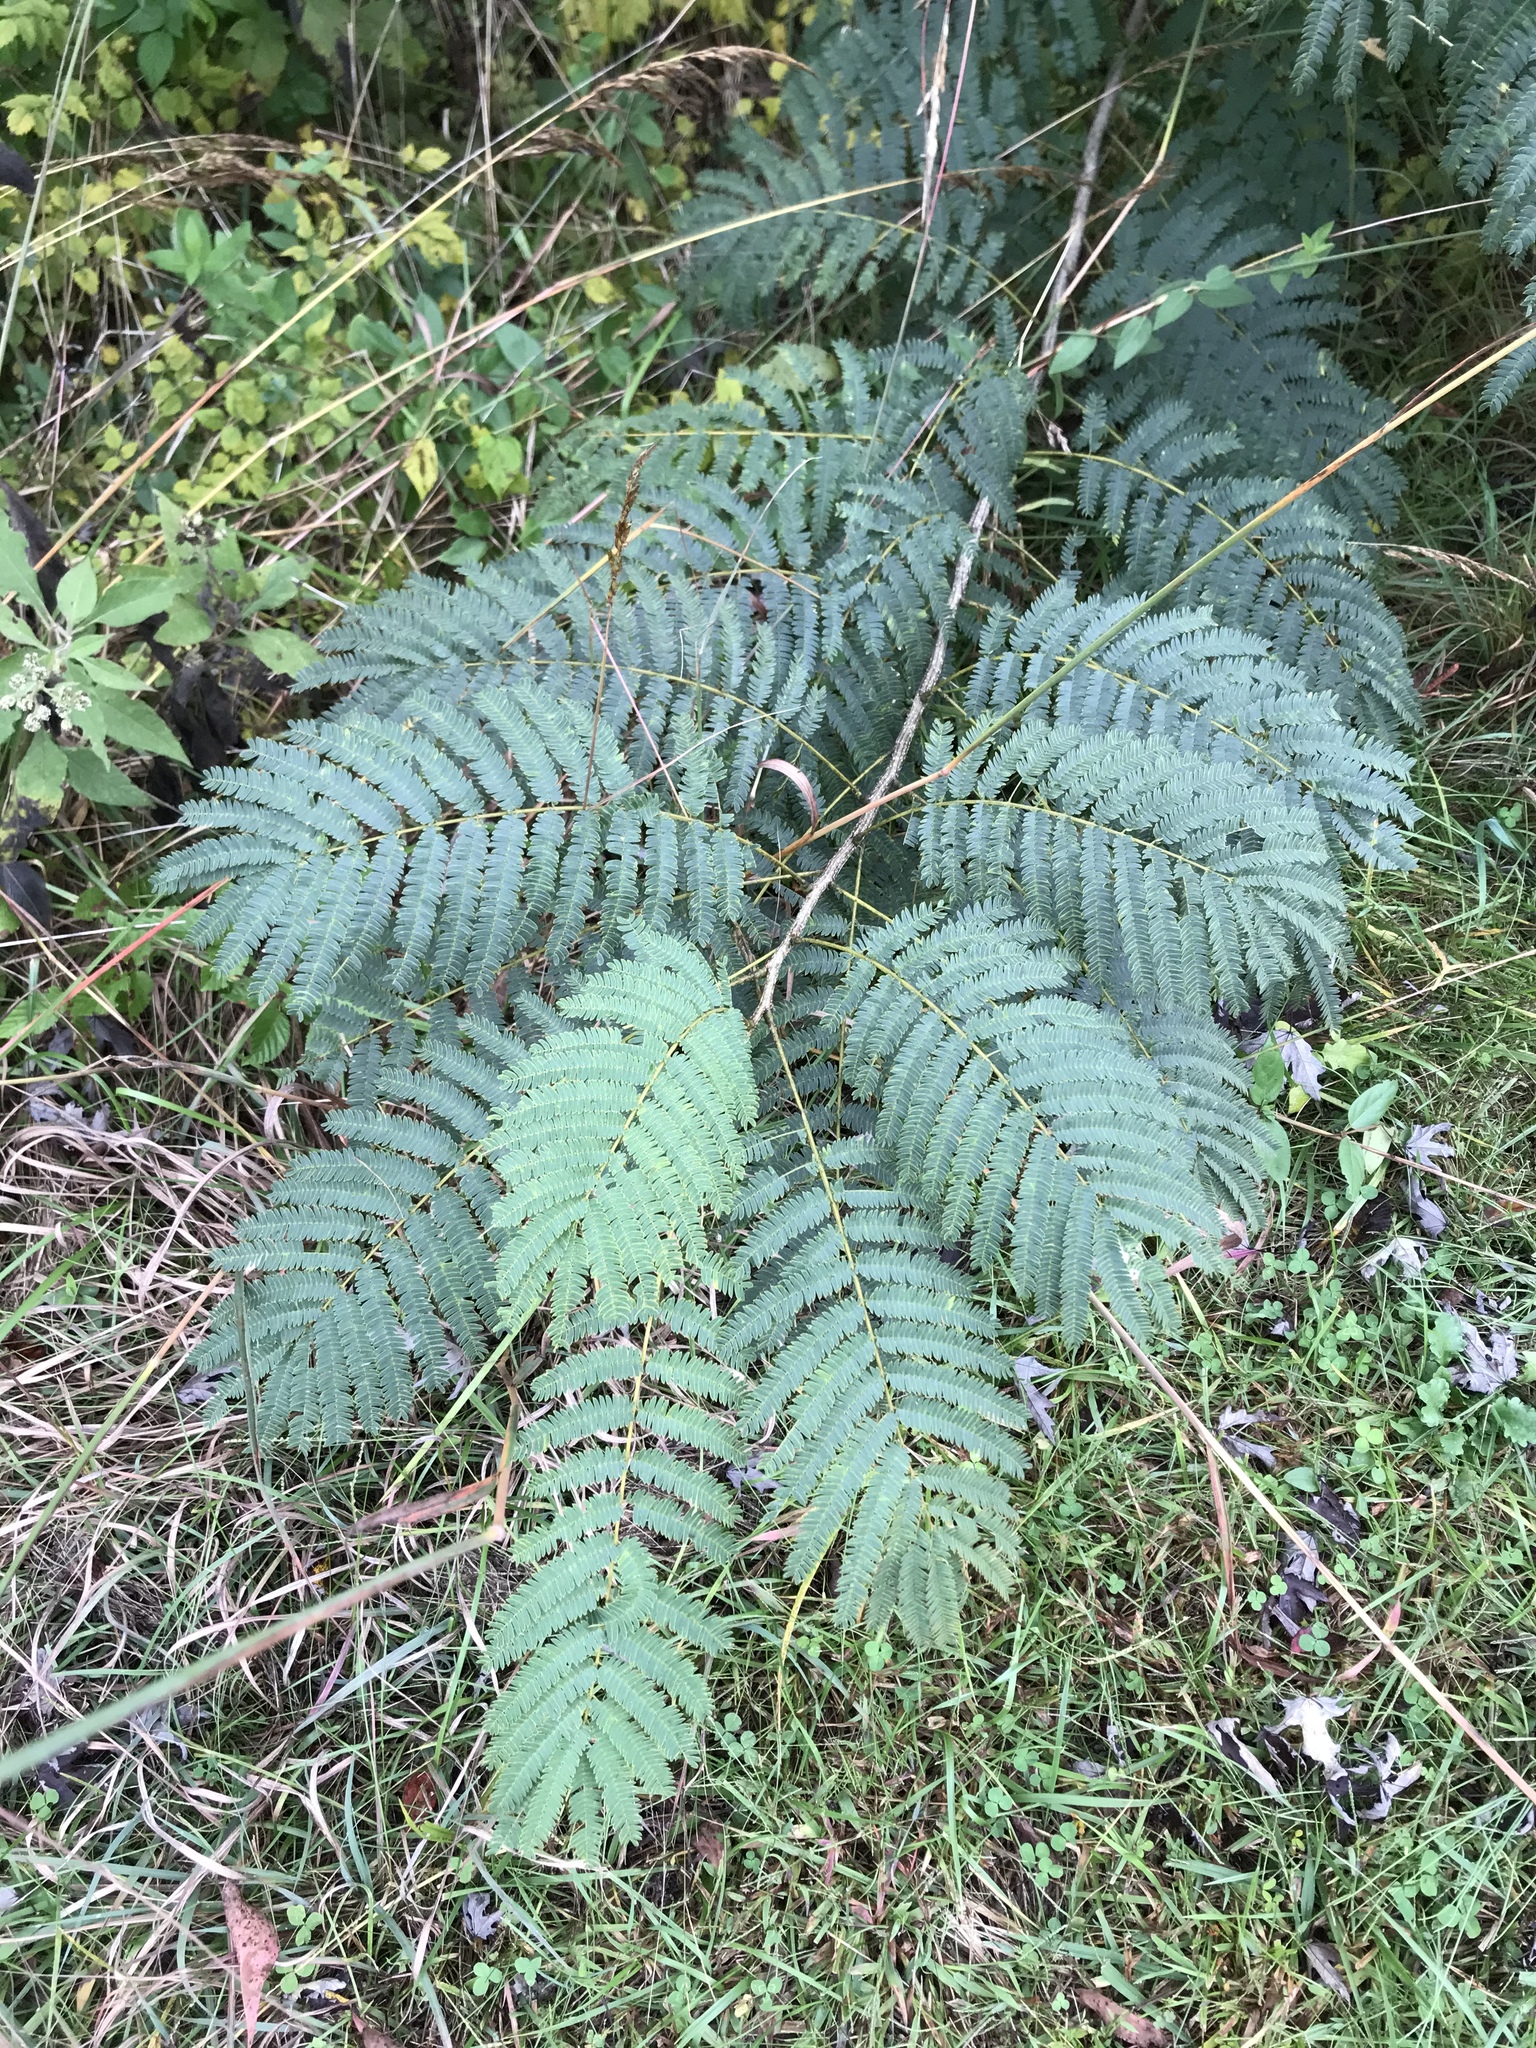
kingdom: Plantae
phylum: Tracheophyta
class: Magnoliopsida
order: Fabales
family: Fabaceae
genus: Albizia
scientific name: Albizia julibrissin
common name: Silktree
